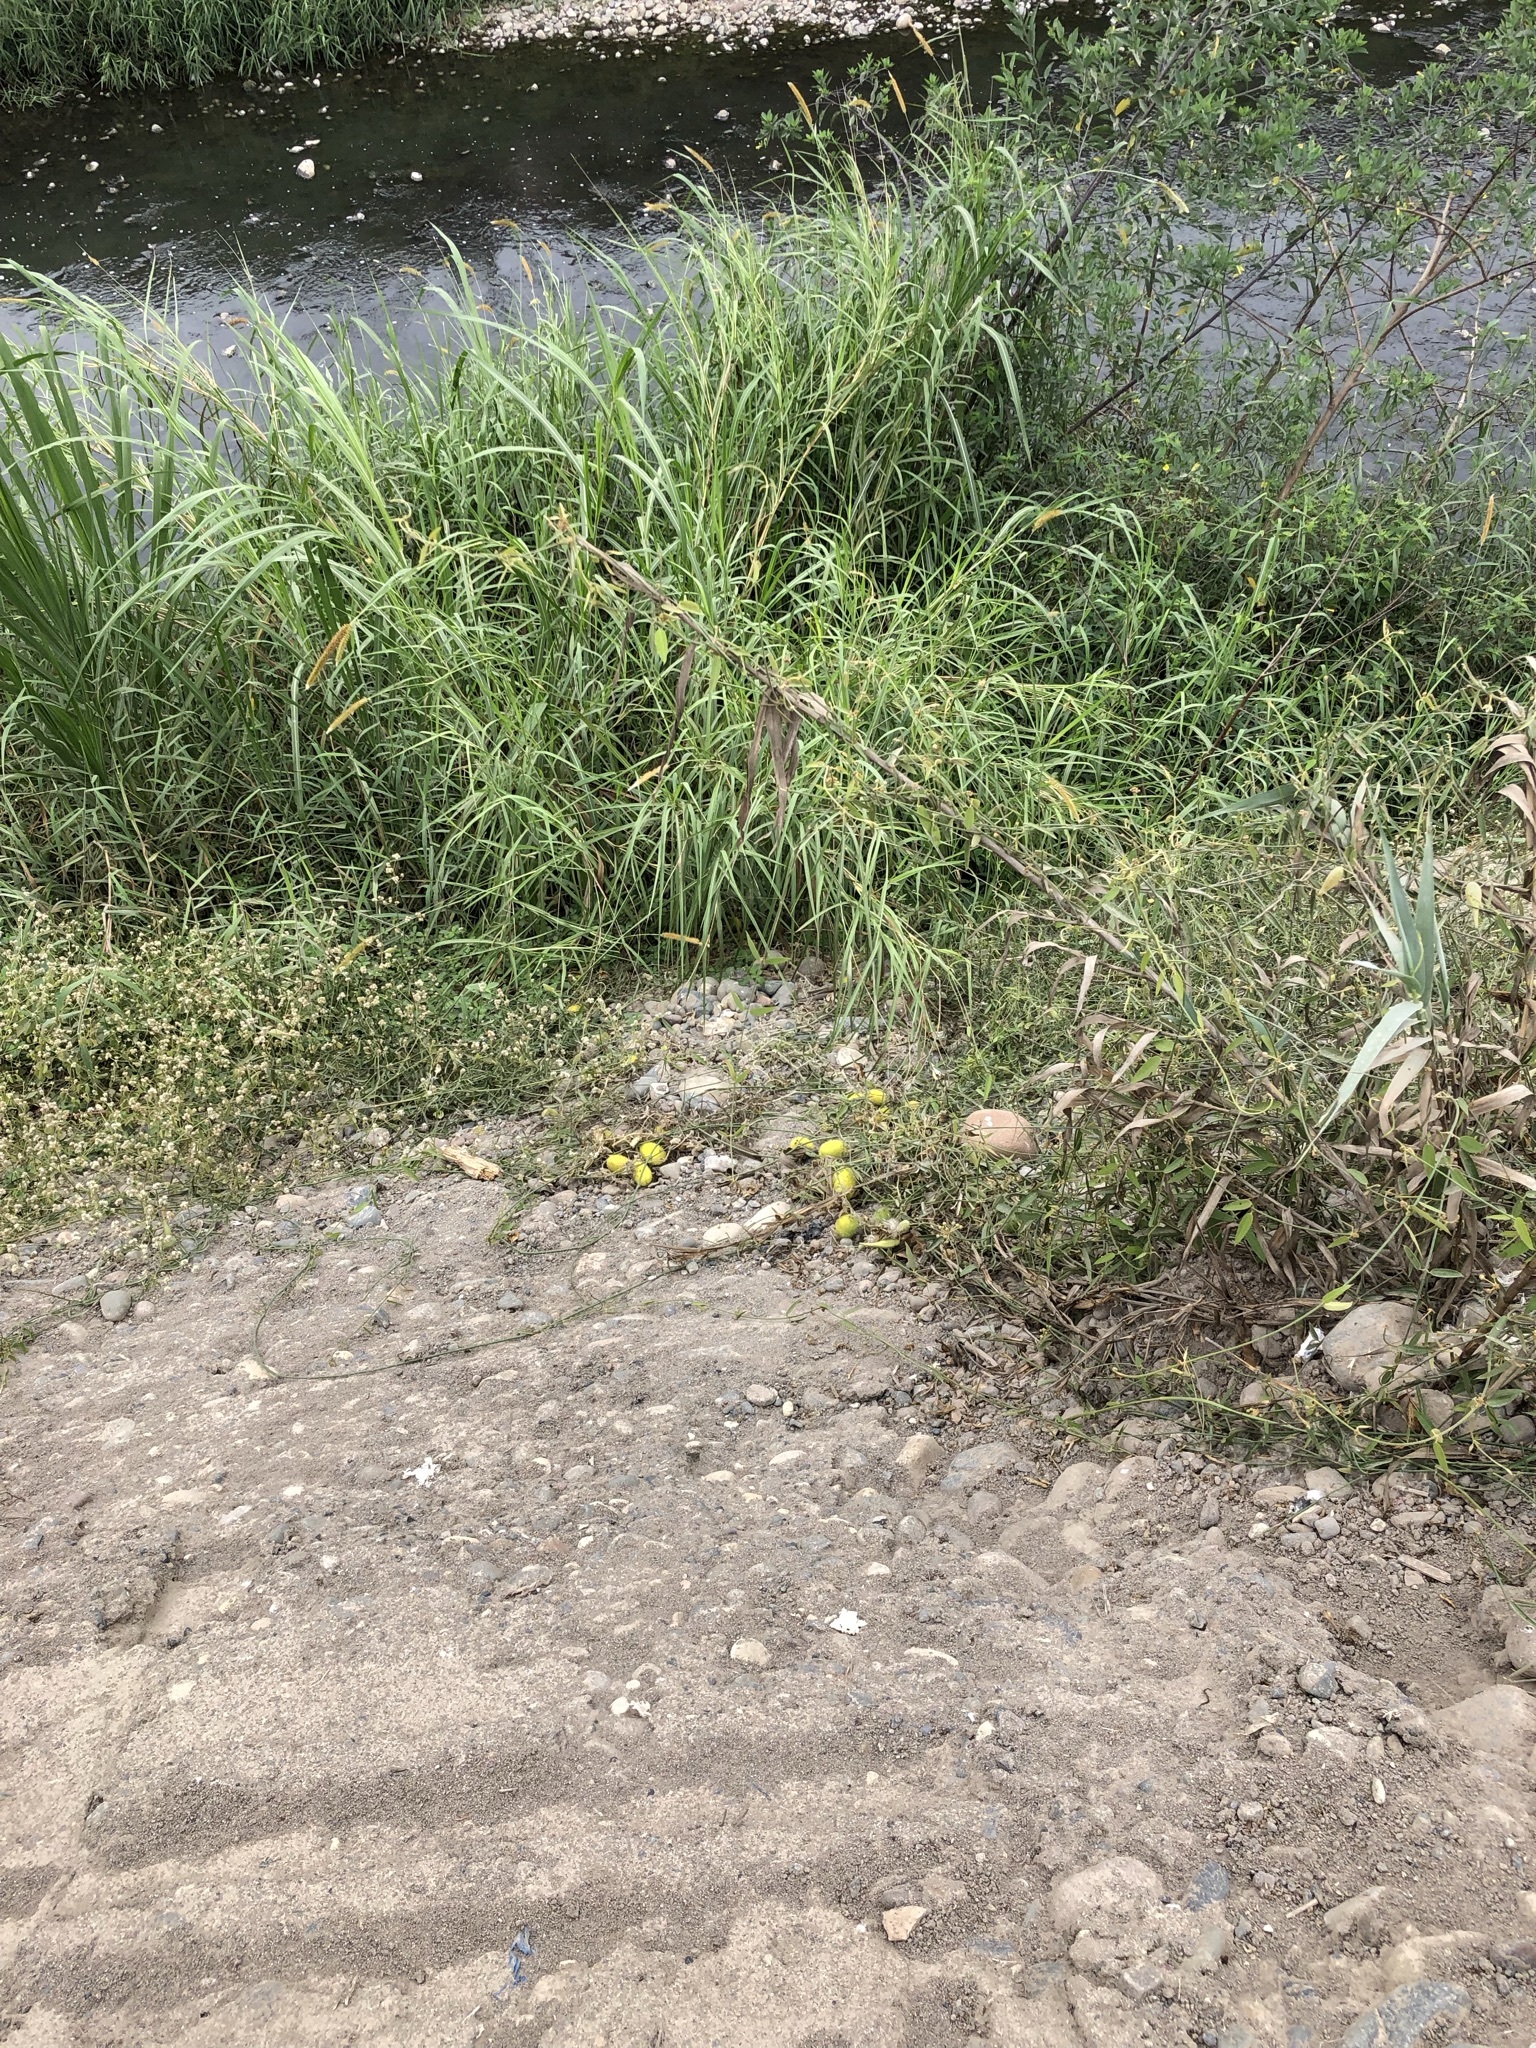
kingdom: Plantae
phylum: Tracheophyta
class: Magnoliopsida
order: Cucurbitales
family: Cucurbitaceae
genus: Cucumis
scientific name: Cucumis dipsaceus
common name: Hedgehog gourd
